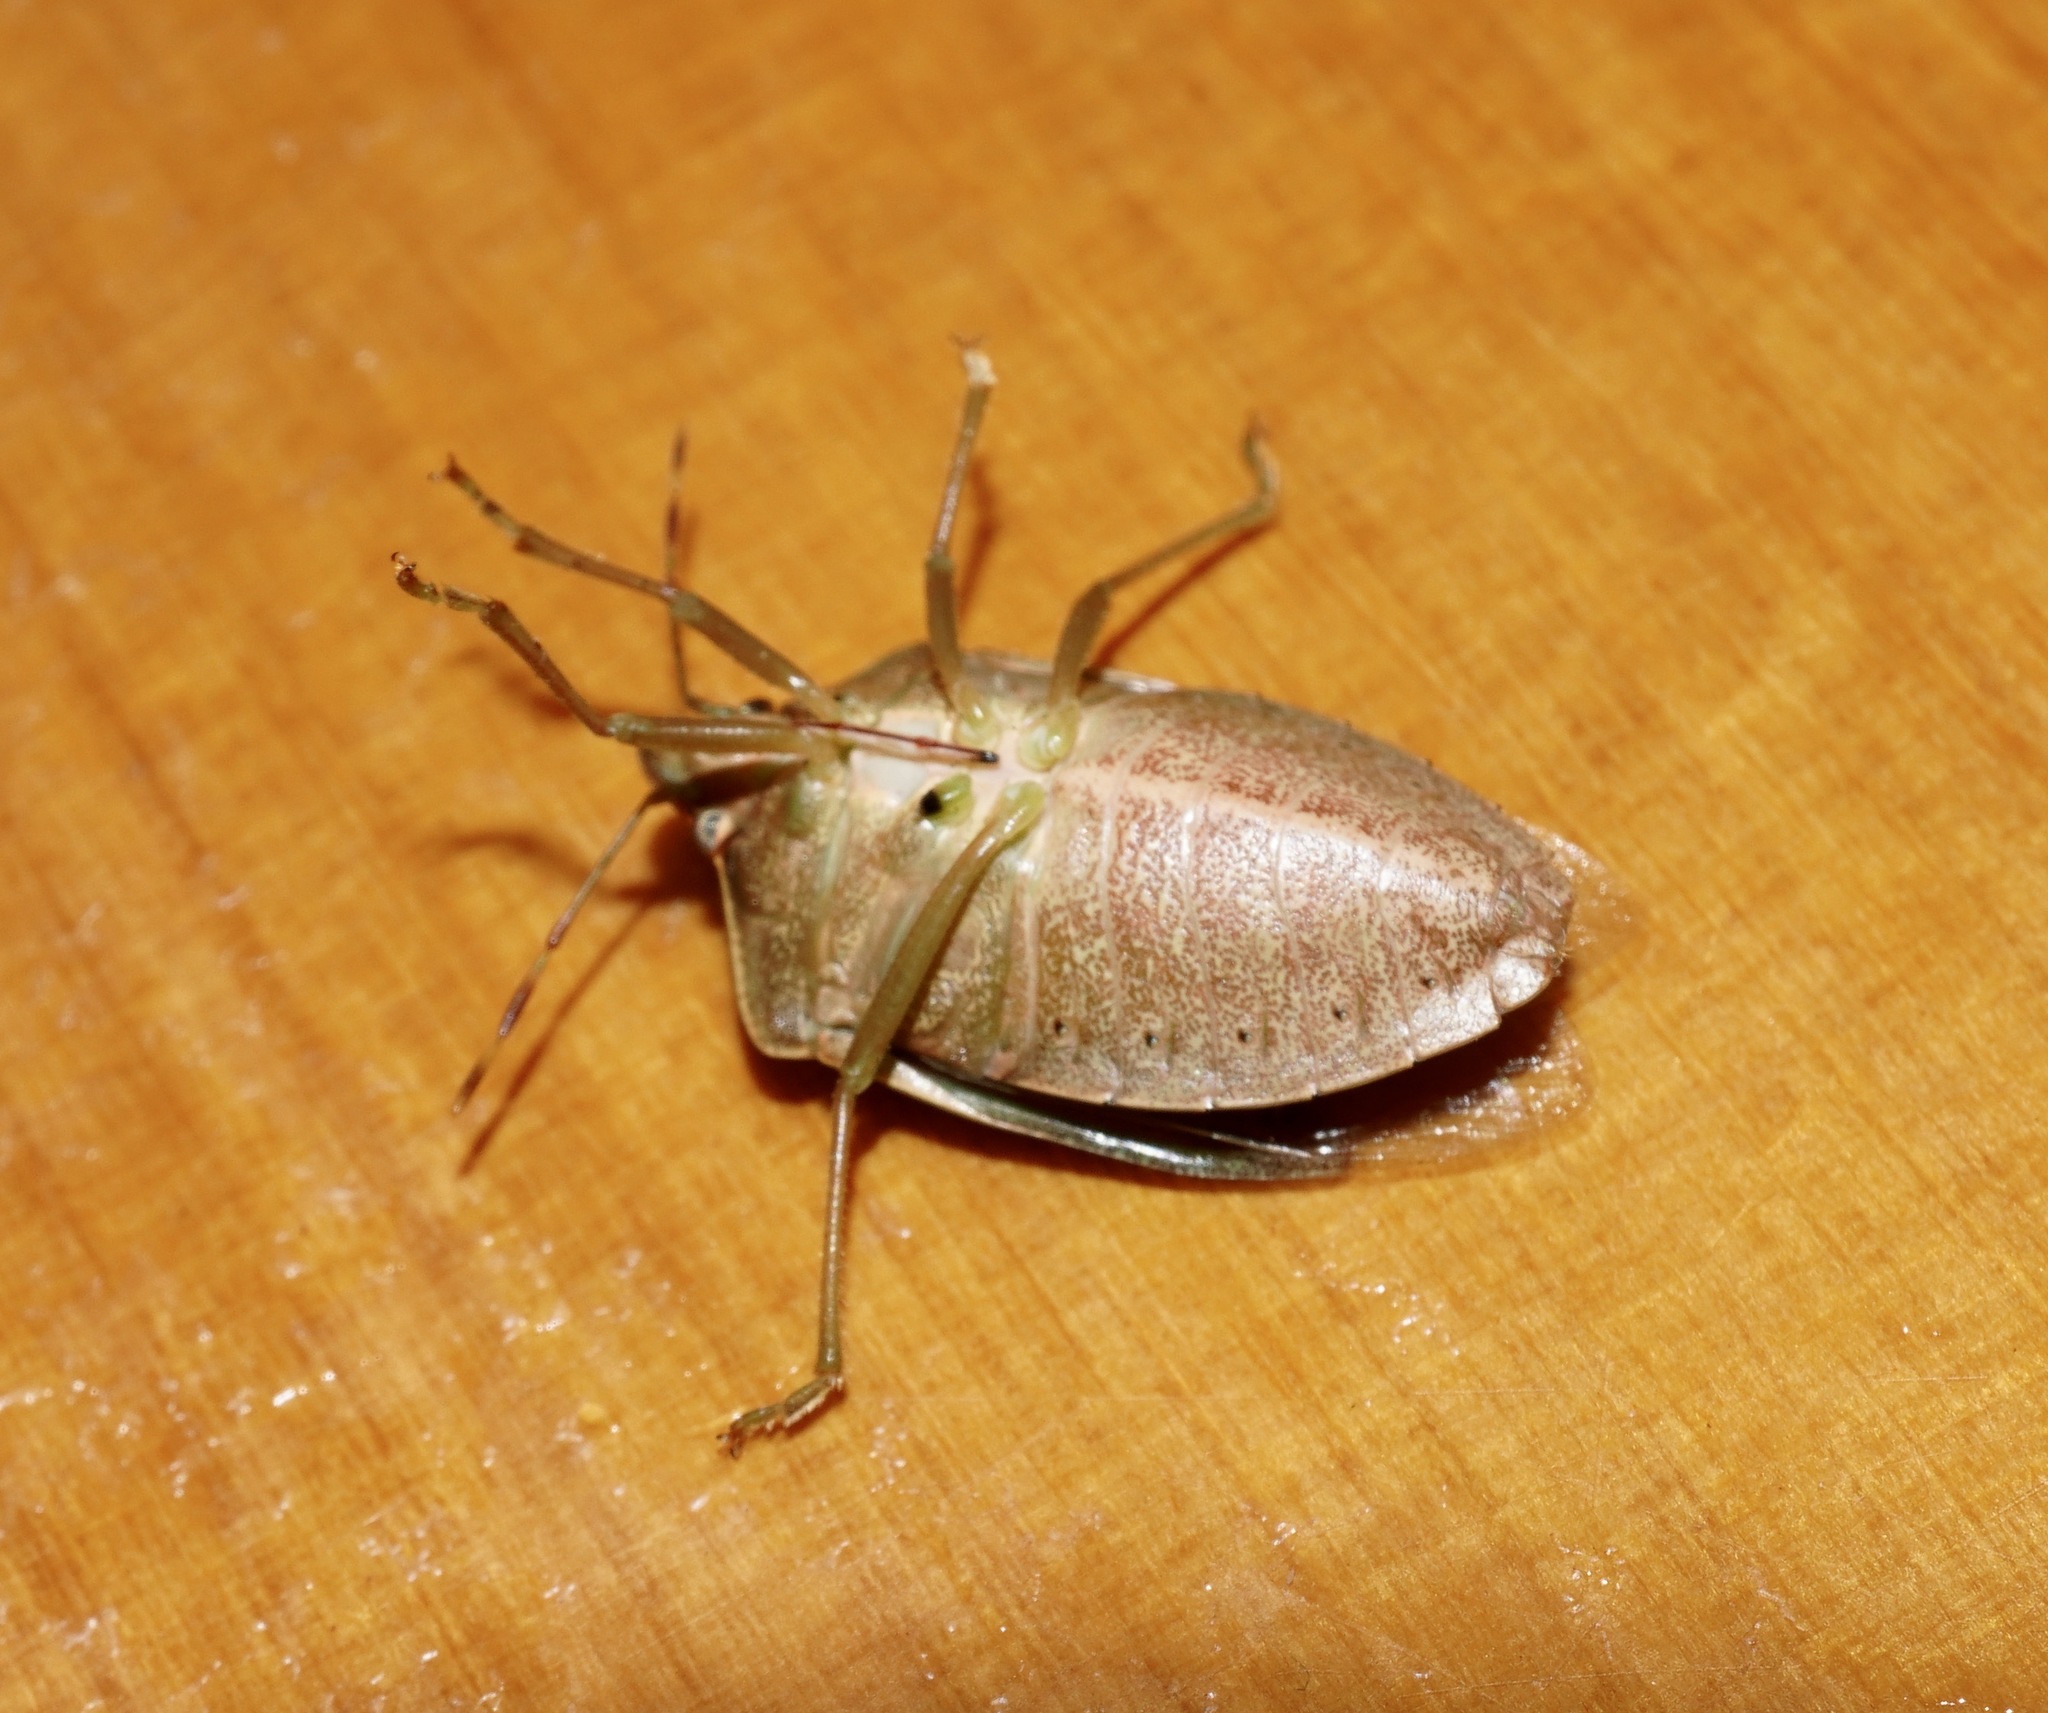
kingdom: Animalia
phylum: Arthropoda
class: Insecta
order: Hemiptera
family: Pentatomidae
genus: Nezara
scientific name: Nezara viridula
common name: Southern green stink bug
